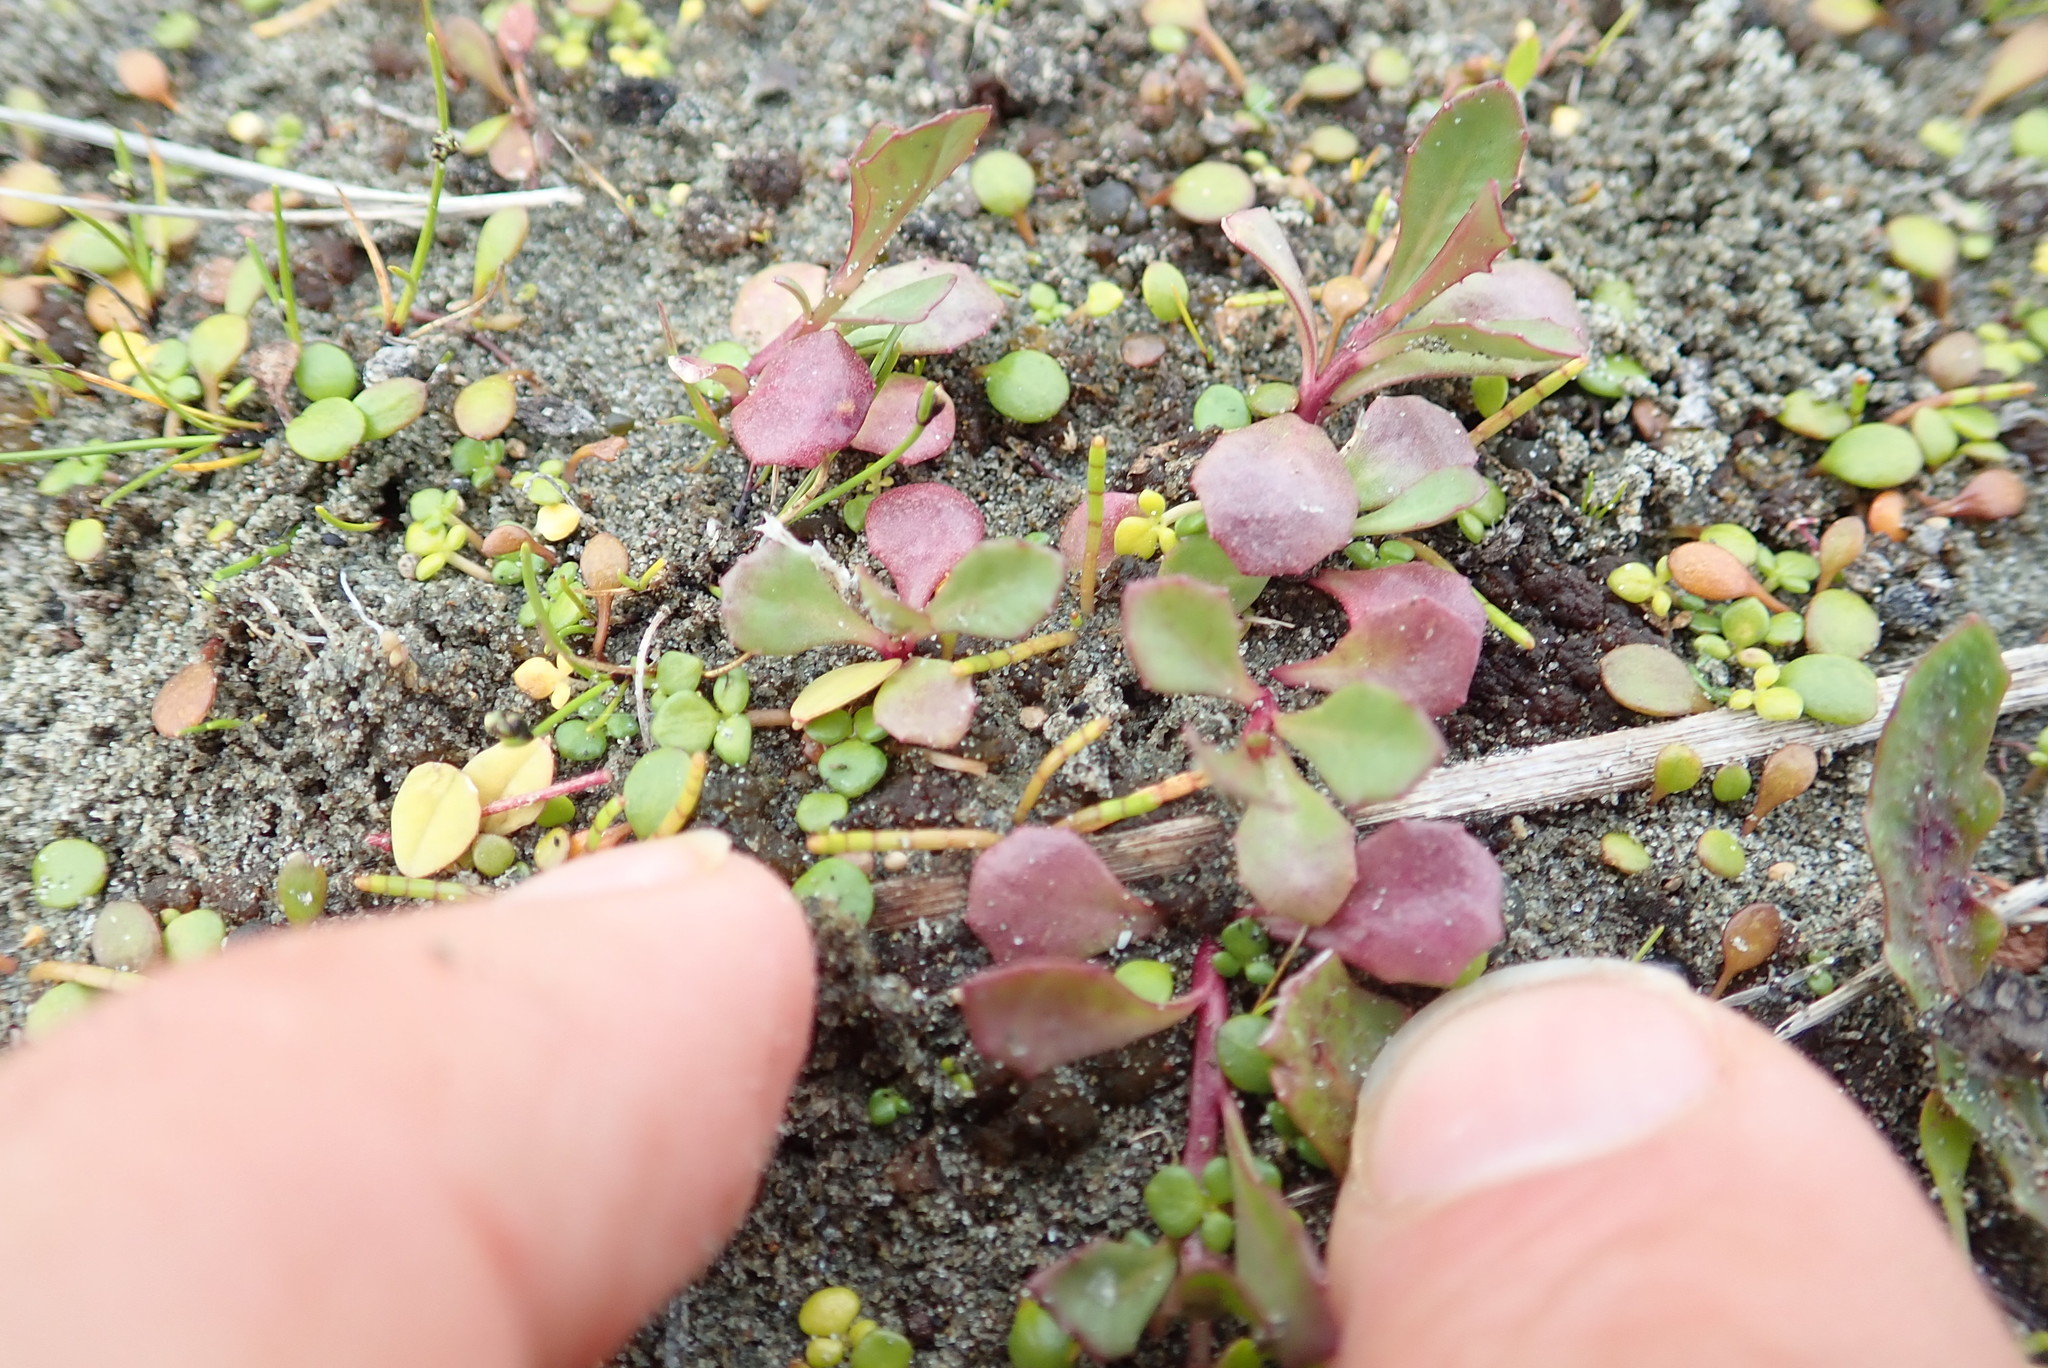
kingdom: Plantae
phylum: Tracheophyta
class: Magnoliopsida
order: Asterales
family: Campanulaceae
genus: Lobelia
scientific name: Lobelia anceps
